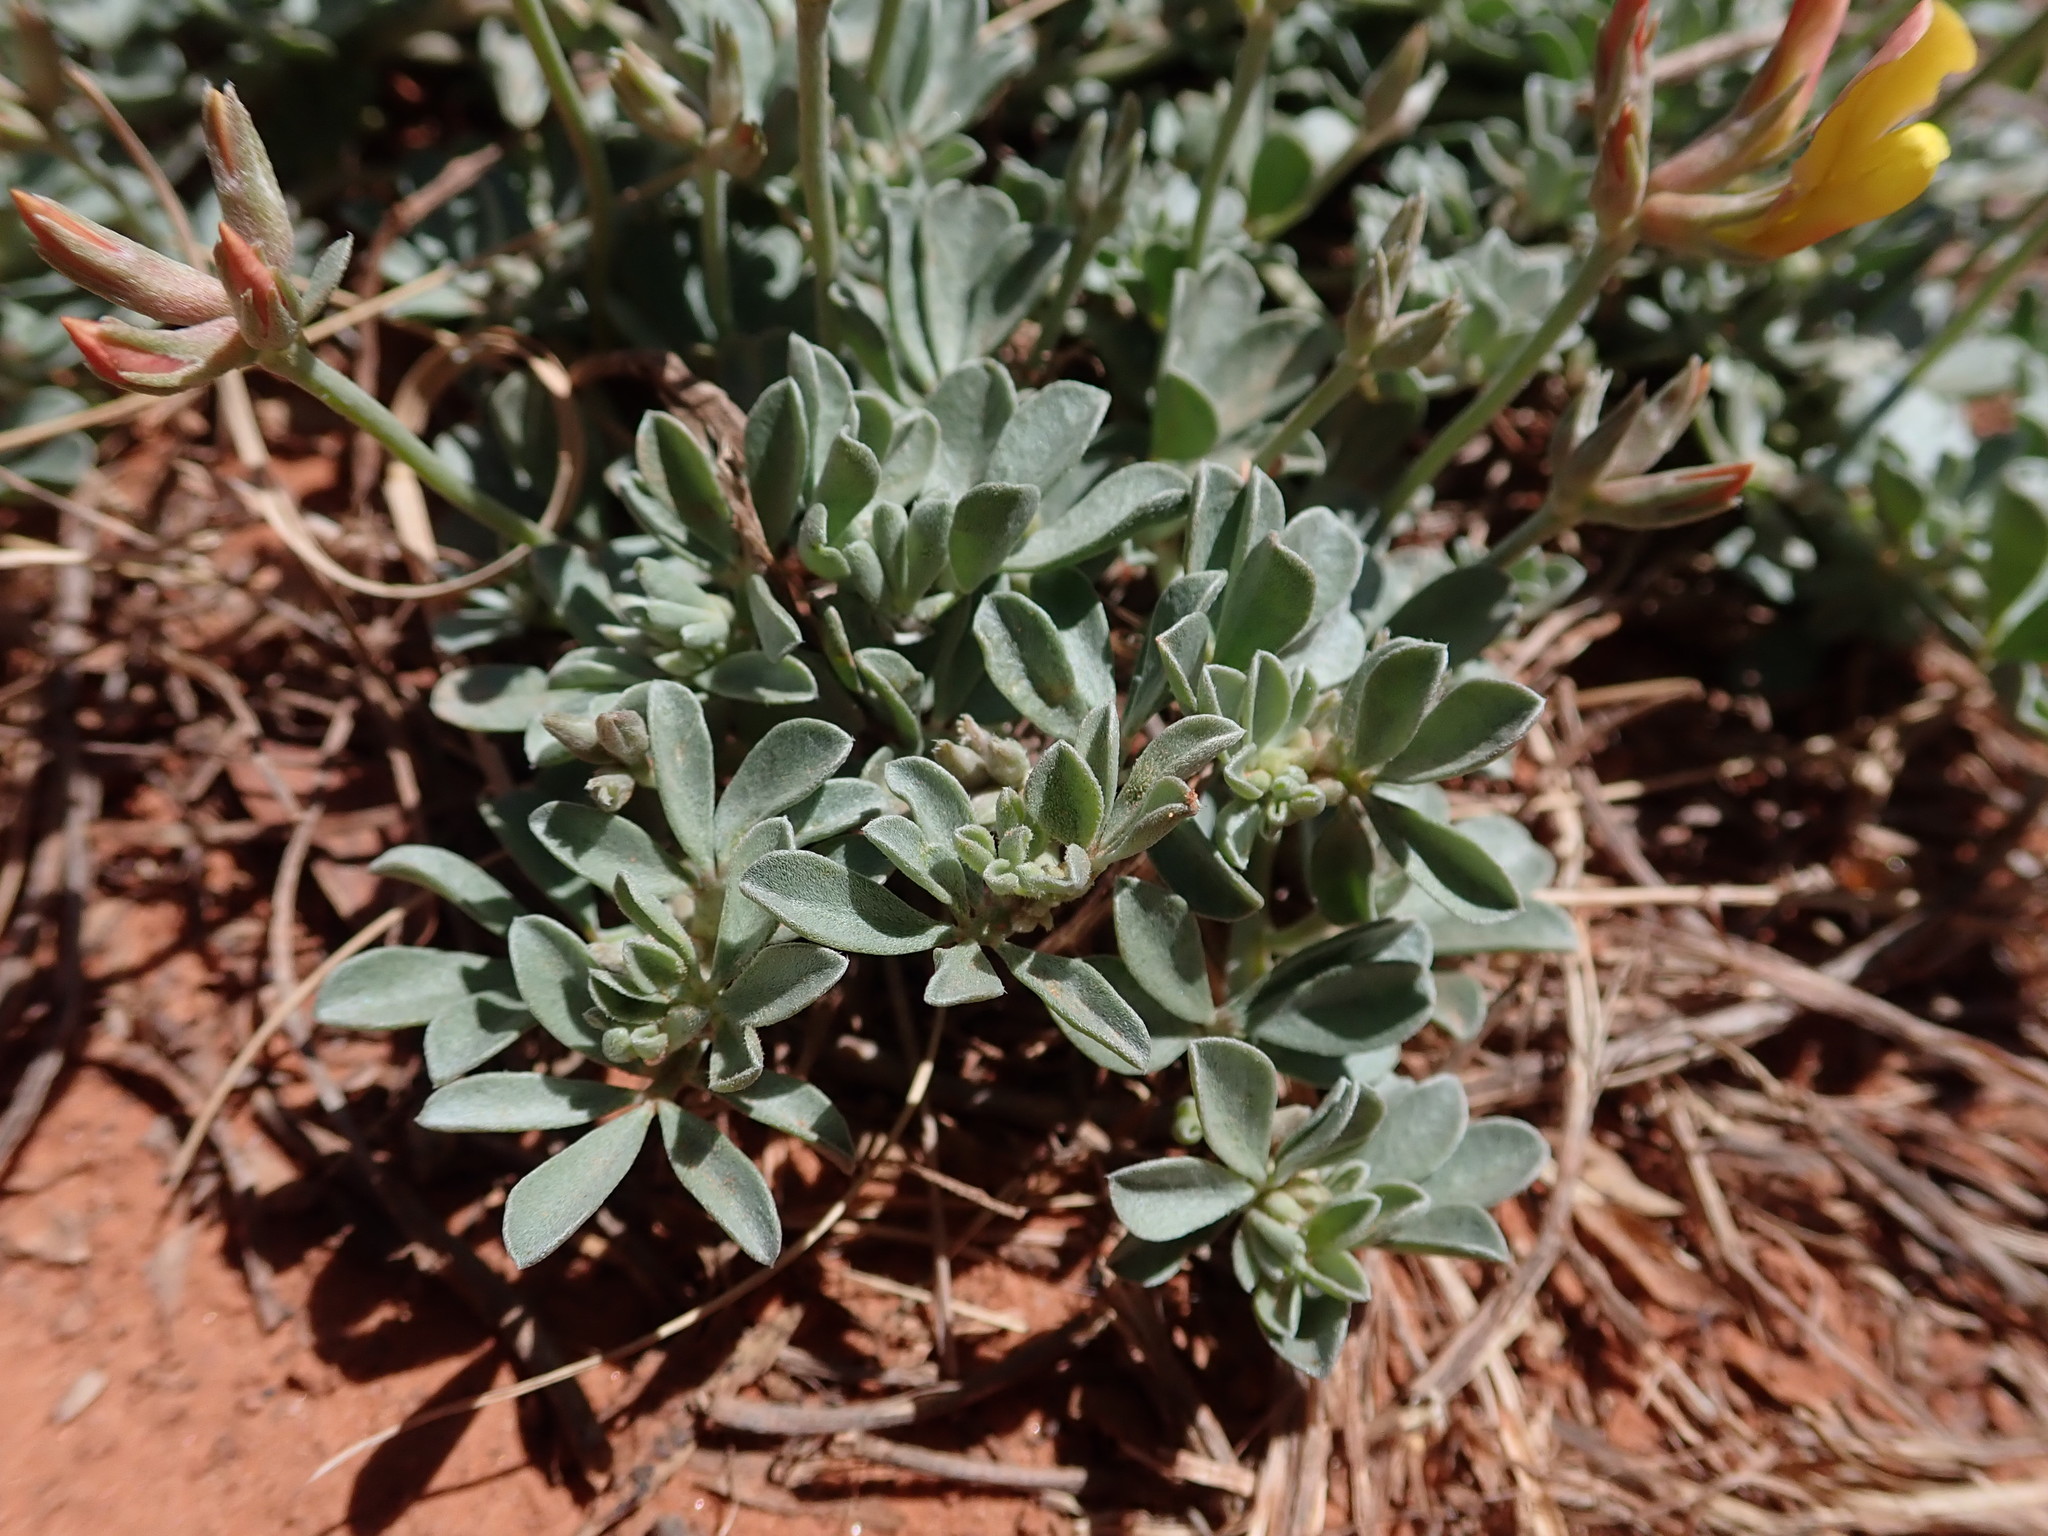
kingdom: Plantae
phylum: Tracheophyta
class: Magnoliopsida
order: Fabales
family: Fabaceae
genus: Acmispon
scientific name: Acmispon mearnsii
